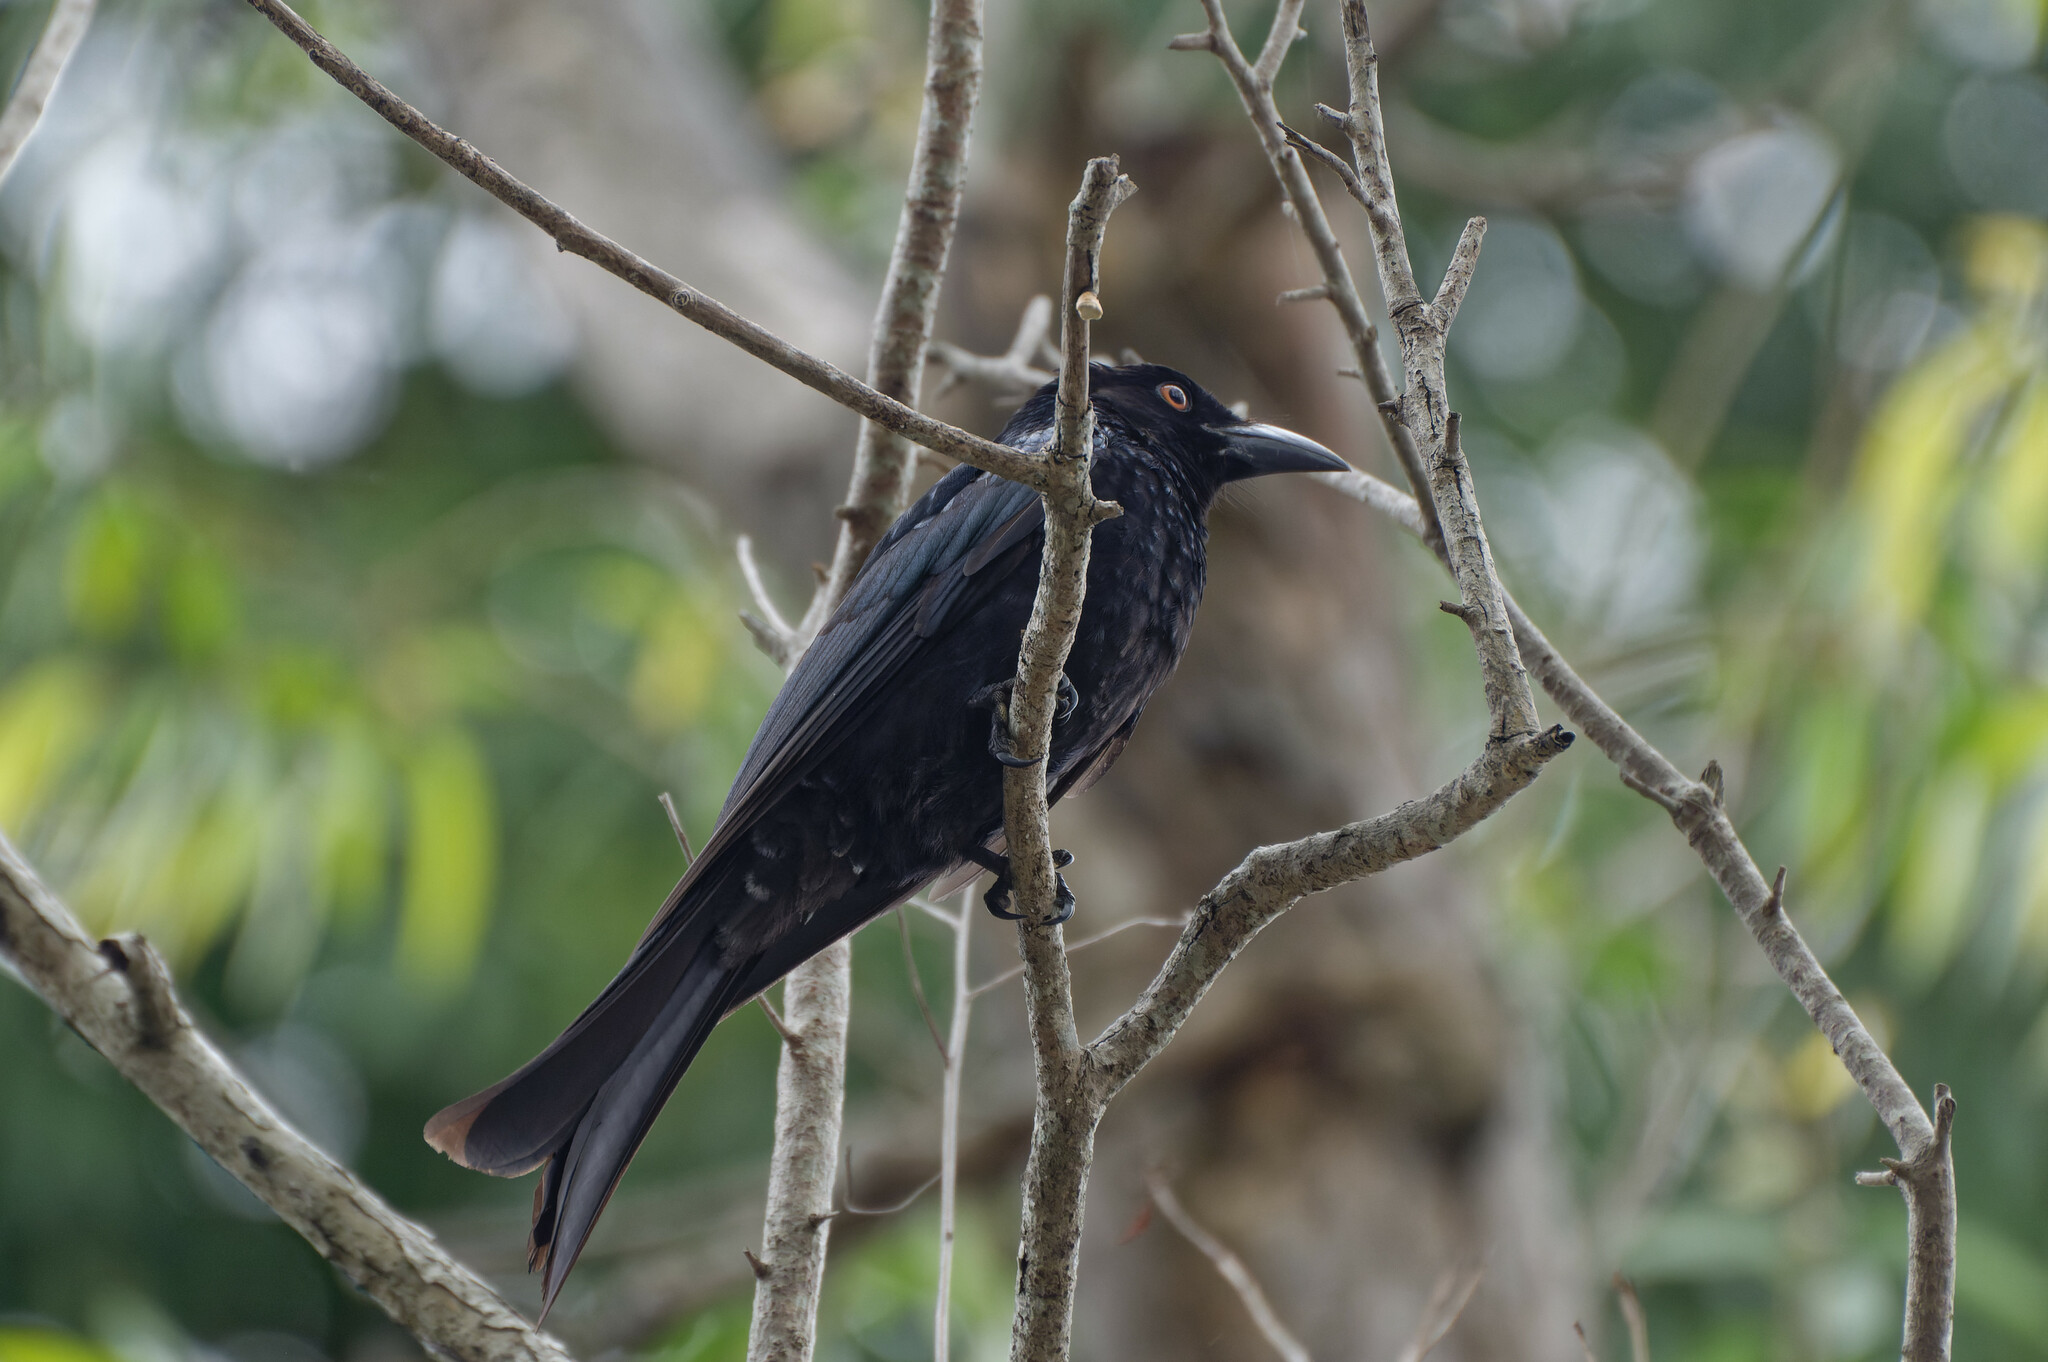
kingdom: Animalia
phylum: Chordata
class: Aves
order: Passeriformes
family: Dicruridae
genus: Dicrurus
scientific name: Dicrurus bracteatus
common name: Spangled drongo
